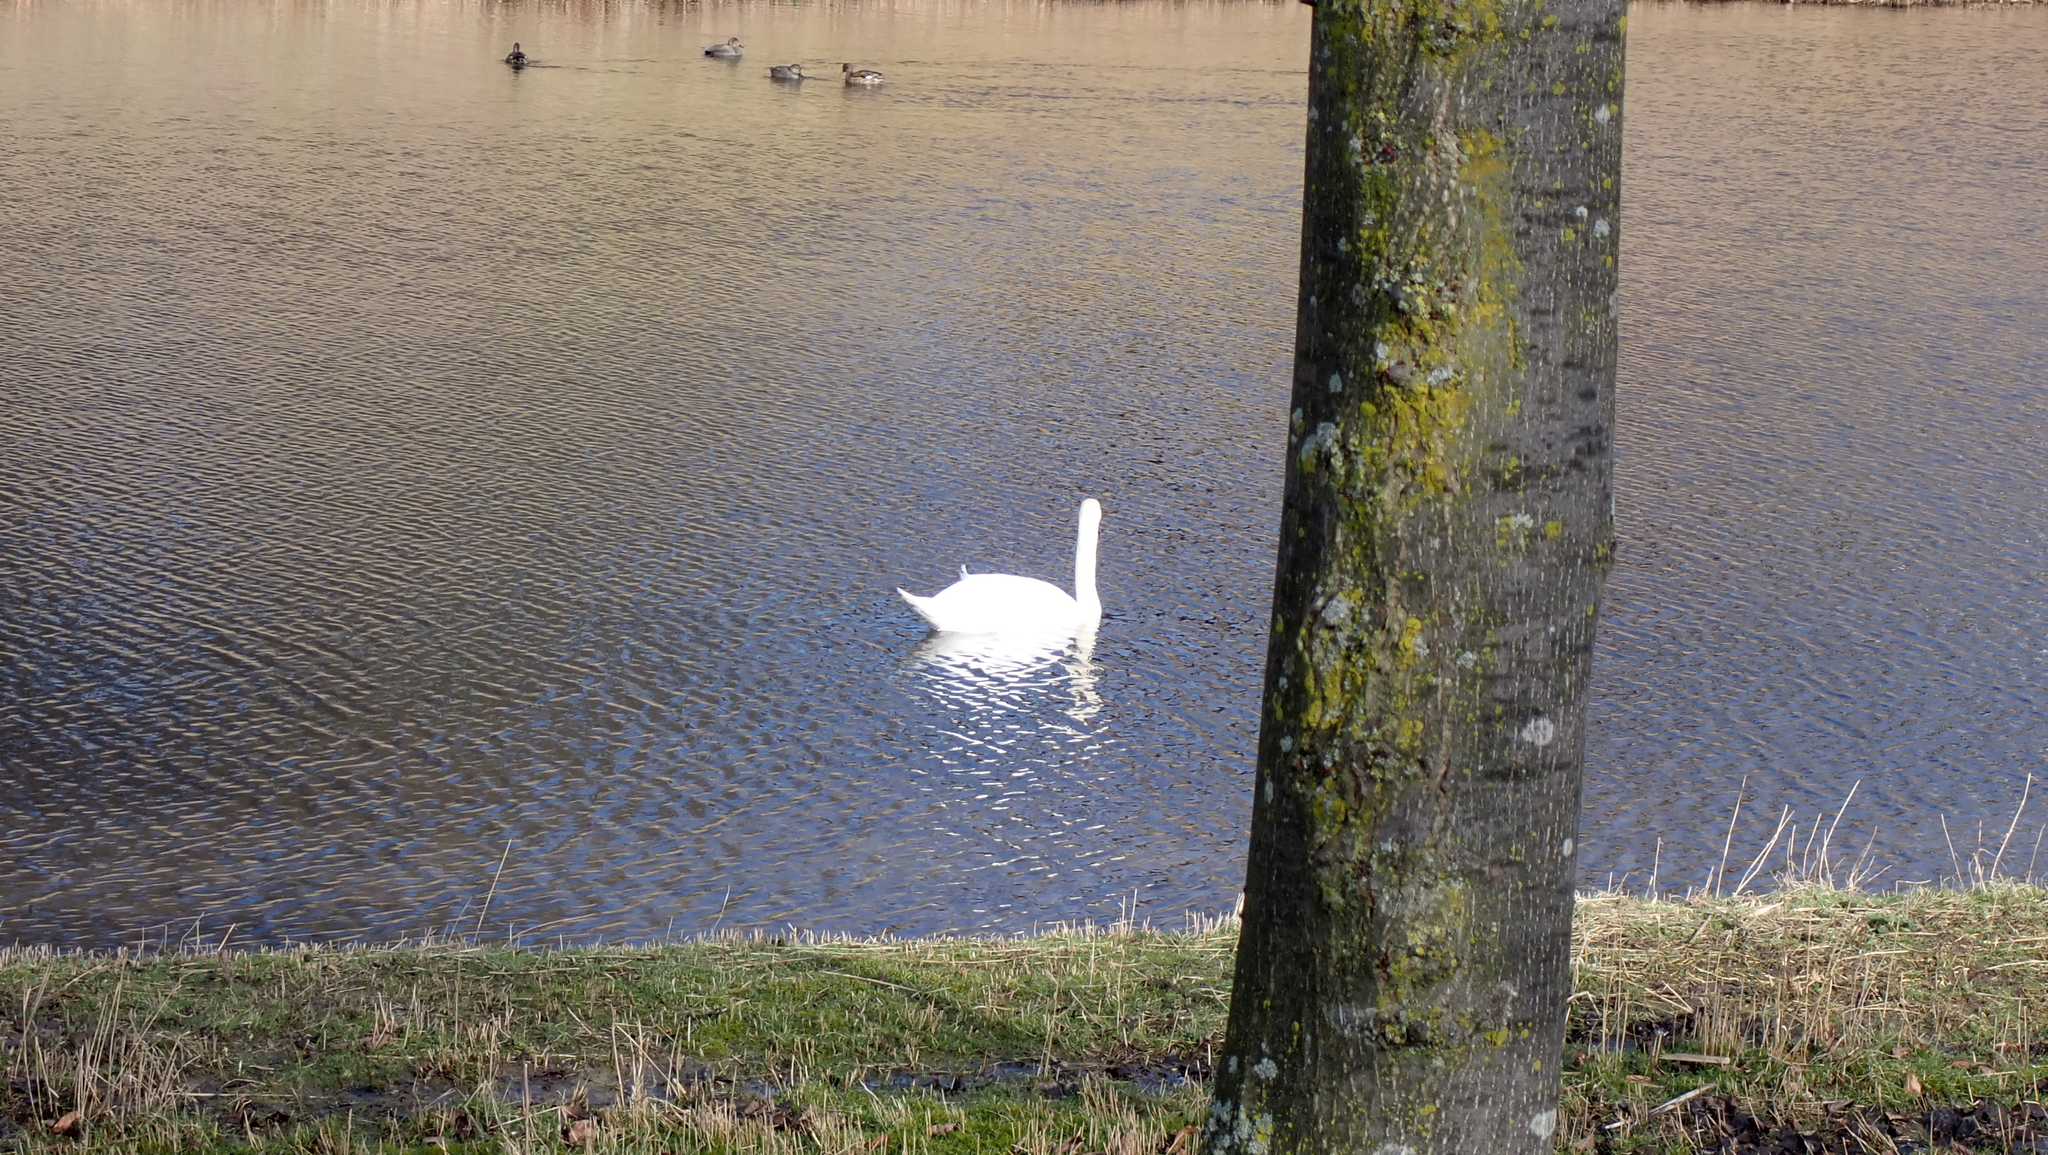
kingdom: Animalia
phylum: Chordata
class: Aves
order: Anseriformes
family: Anatidae
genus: Cygnus
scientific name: Cygnus olor
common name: Mute swan
